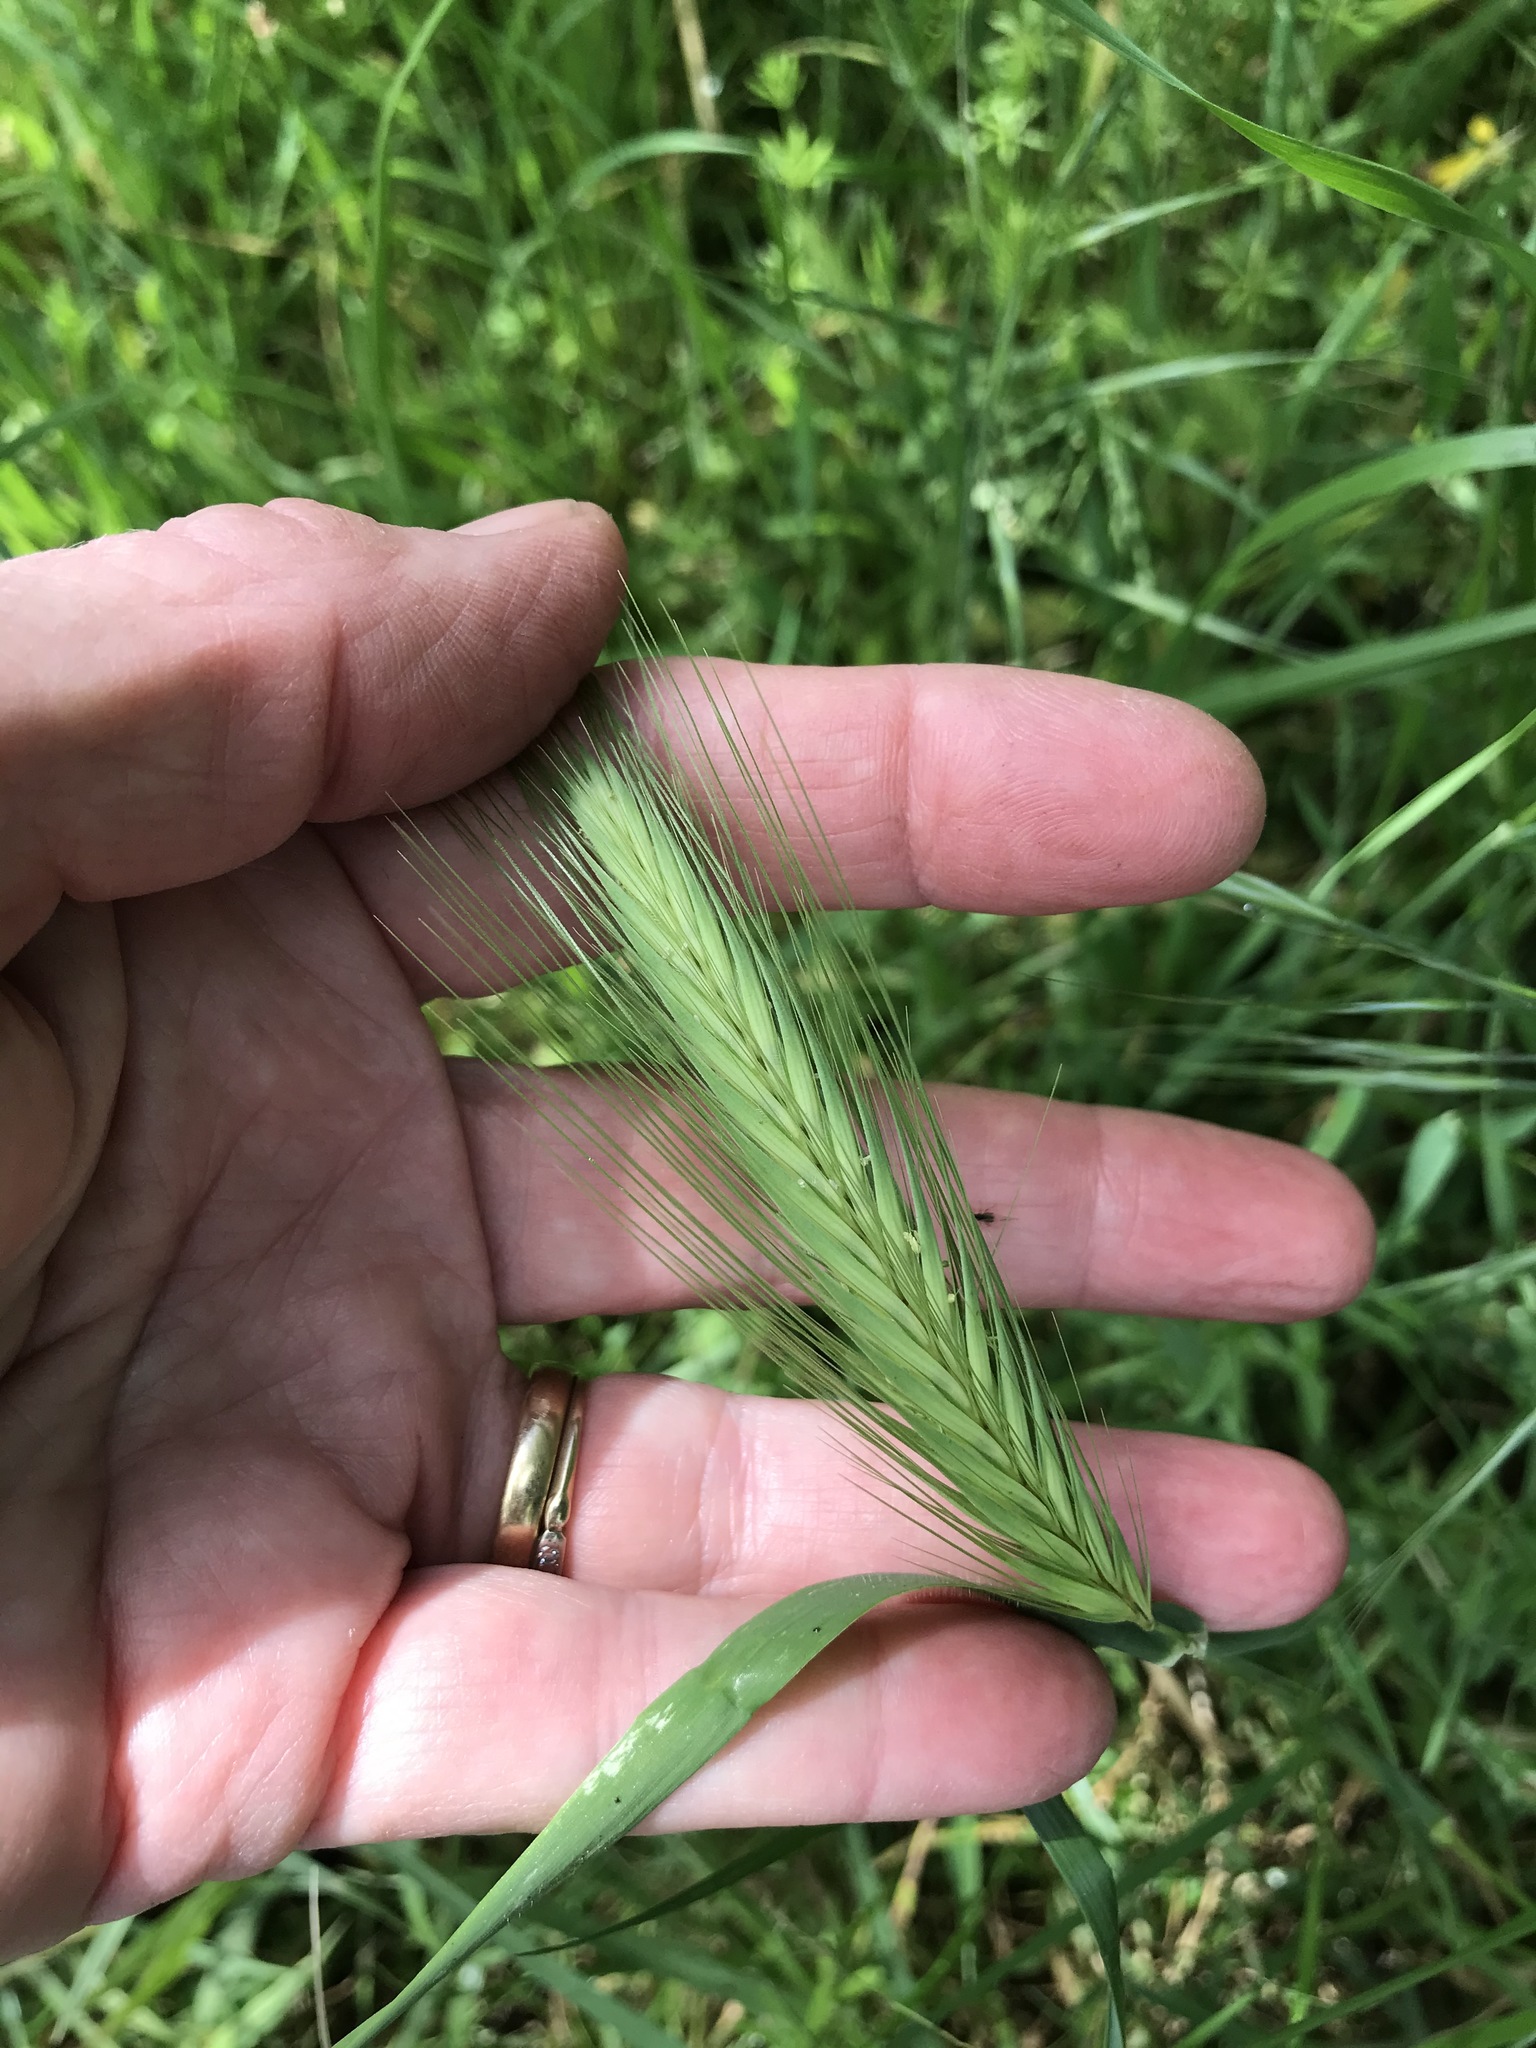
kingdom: Plantae
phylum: Tracheophyta
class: Liliopsida
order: Poales
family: Poaceae
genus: Hordeum
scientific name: Hordeum murinum
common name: Wall barley
